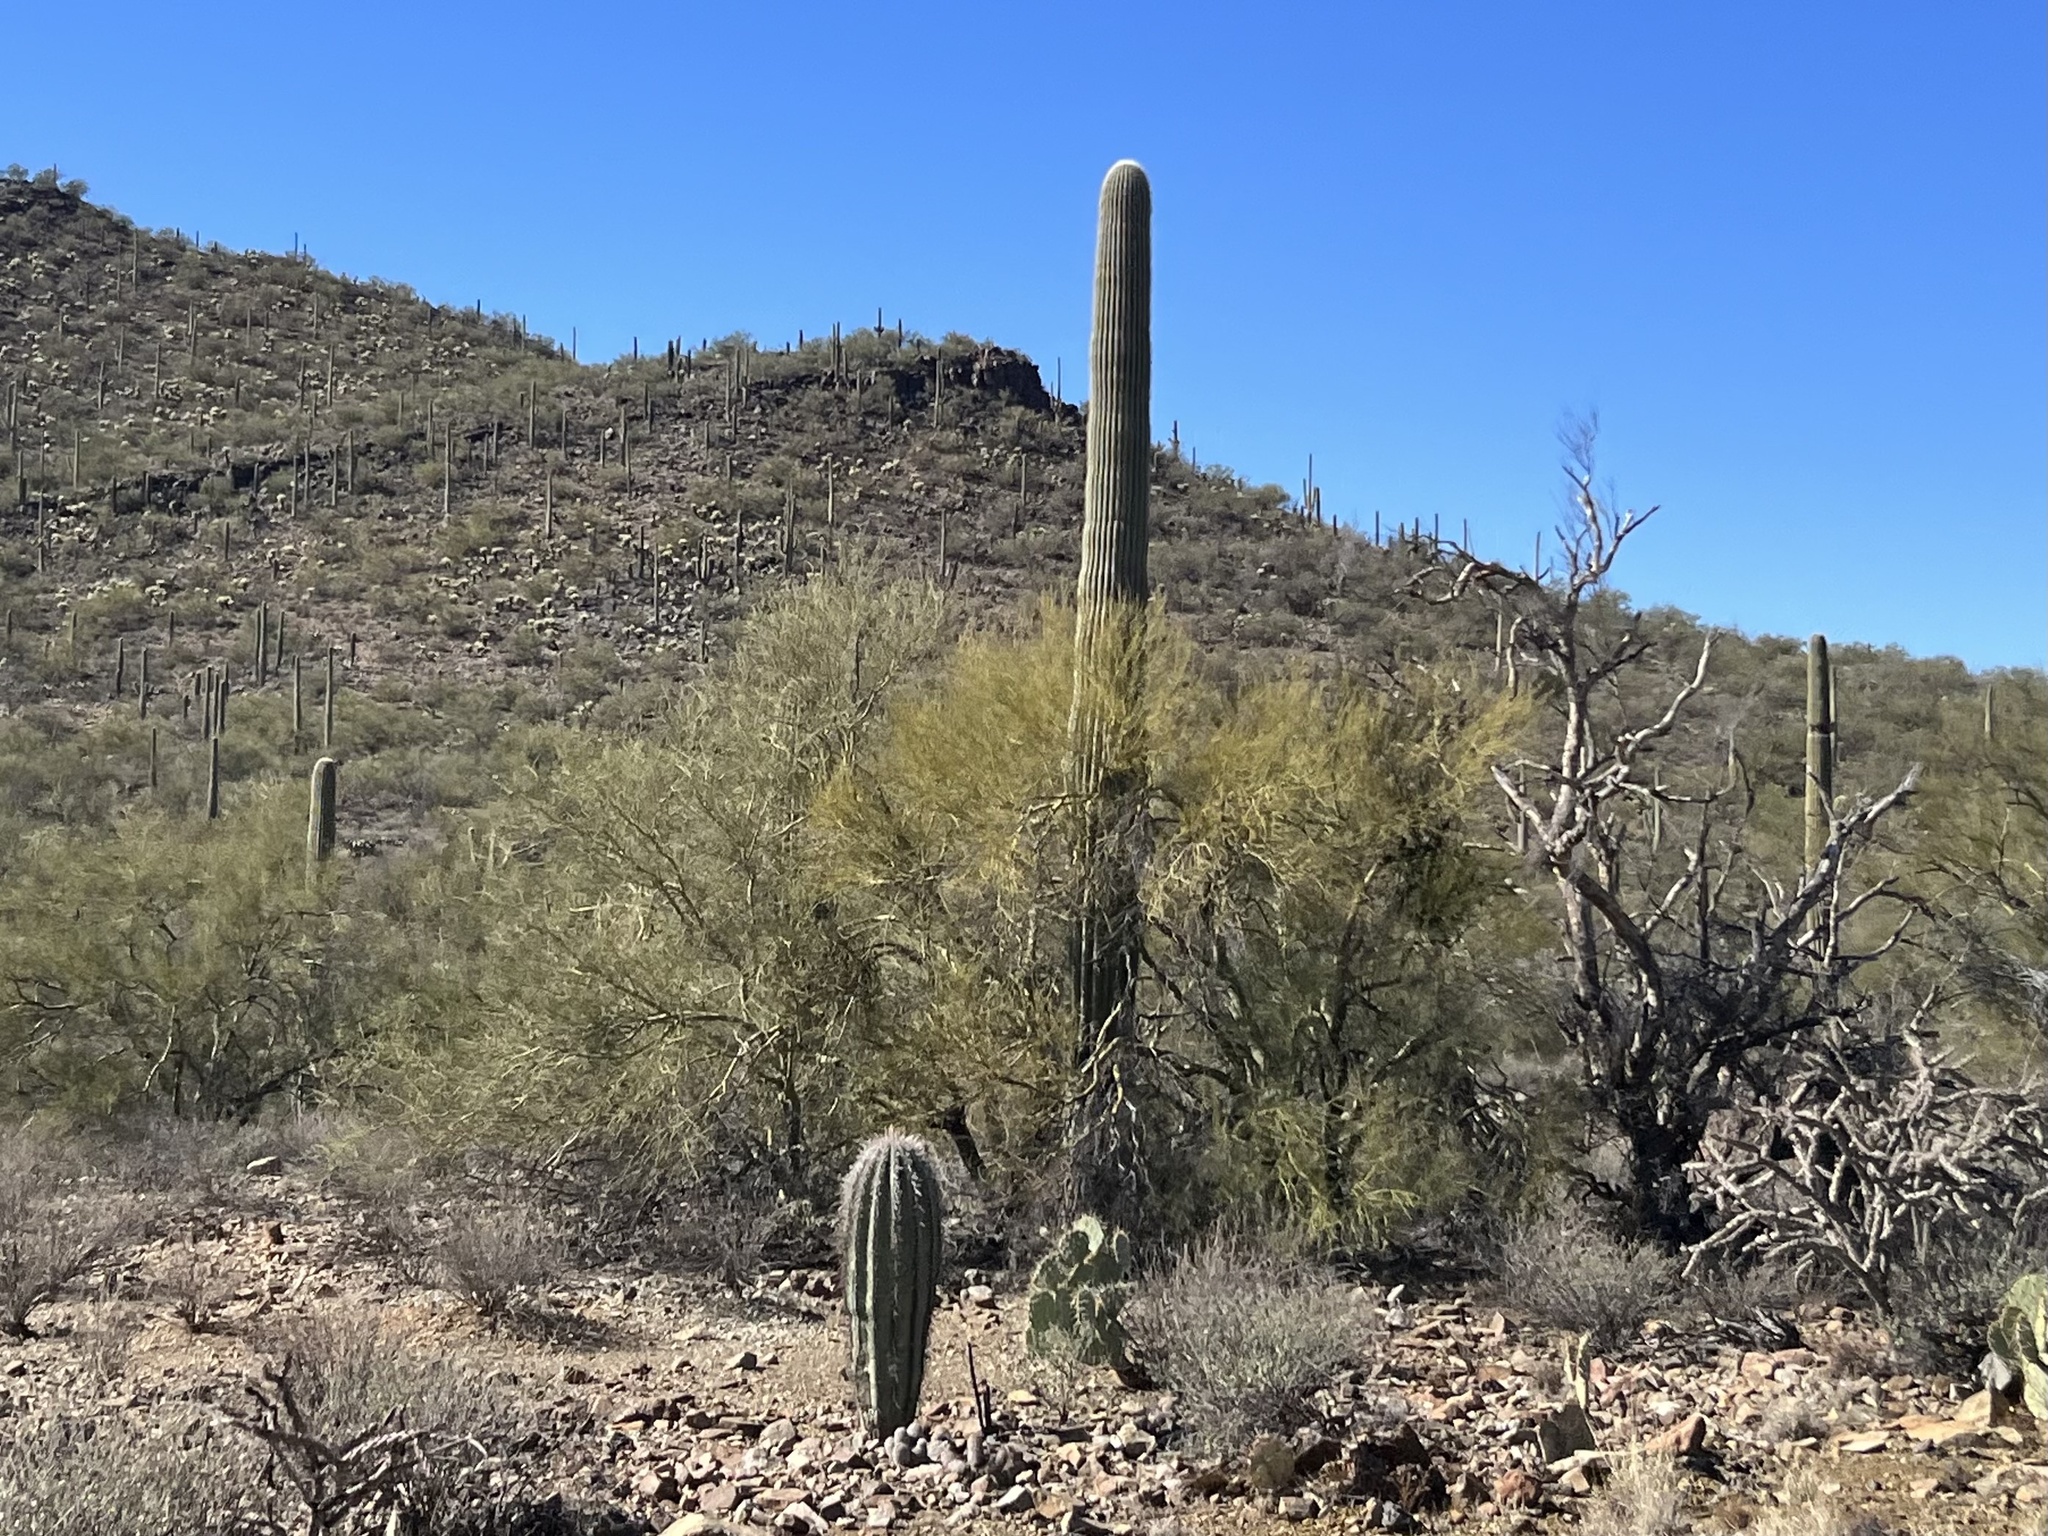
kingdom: Plantae
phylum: Tracheophyta
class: Magnoliopsida
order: Caryophyllales
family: Cactaceae
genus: Carnegiea
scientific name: Carnegiea gigantea
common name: Saguaro
